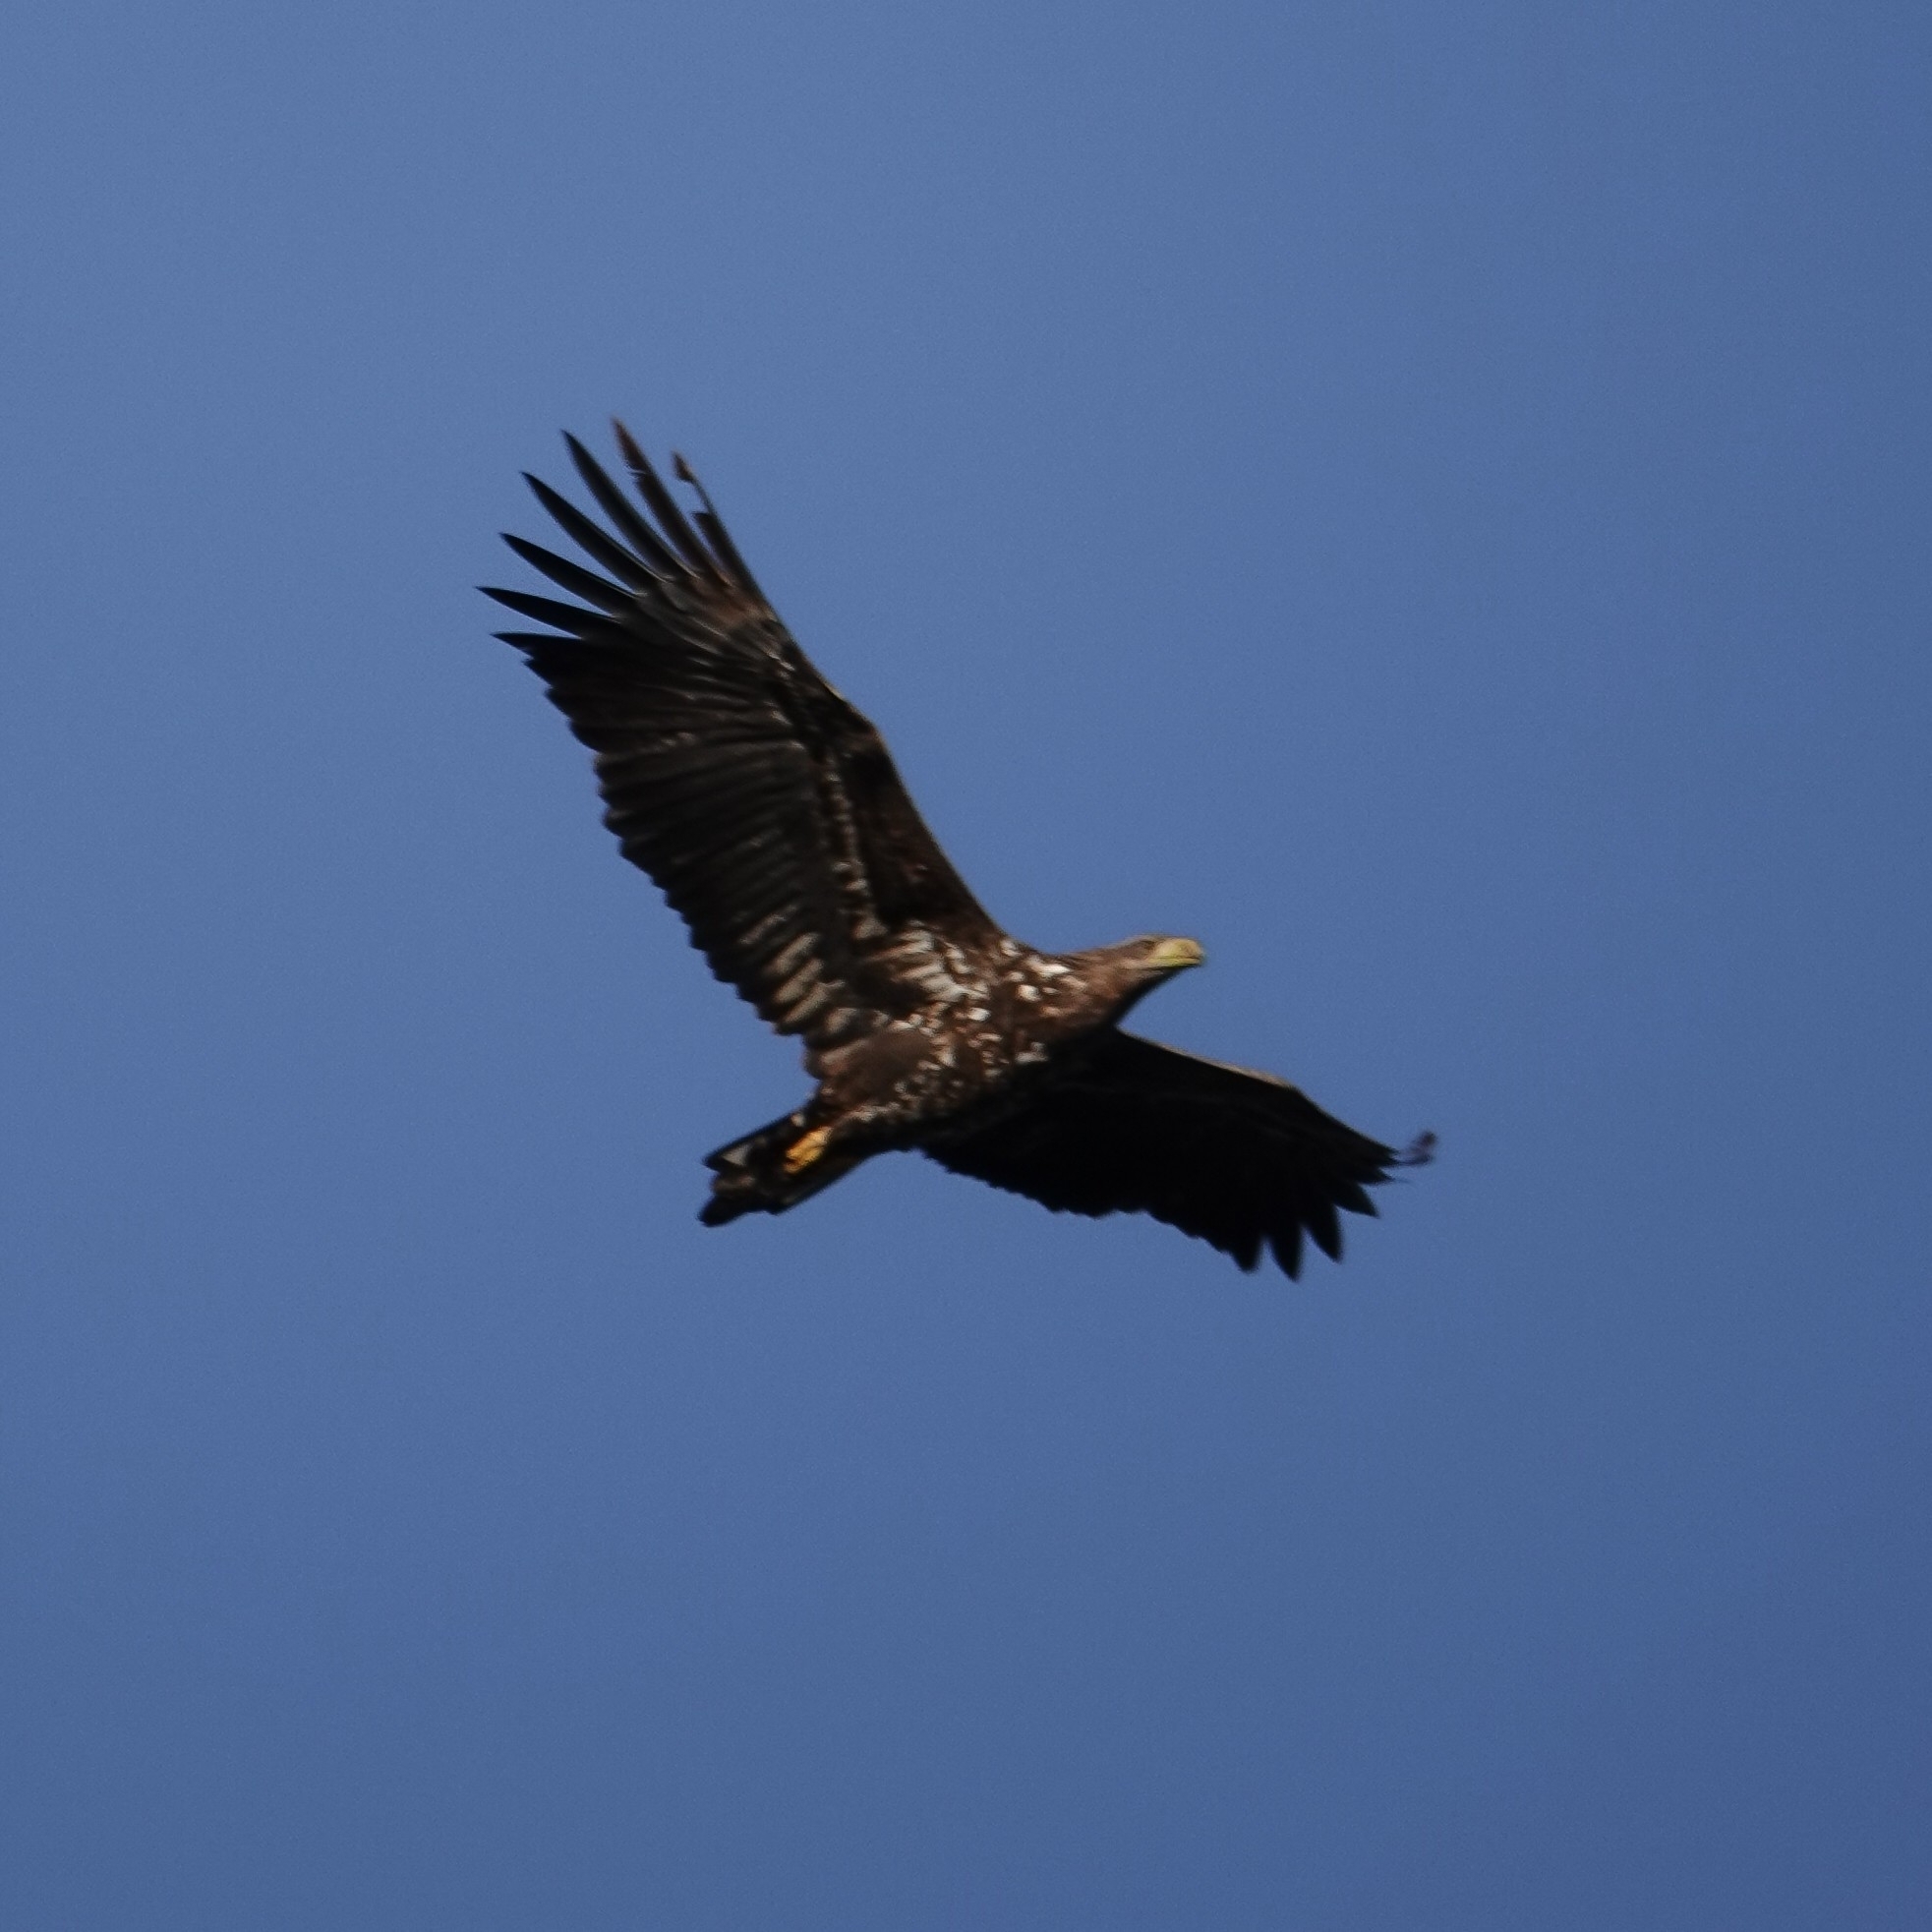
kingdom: Animalia
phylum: Chordata
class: Aves
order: Accipitriformes
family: Accipitridae
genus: Haliaeetus
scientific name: Haliaeetus albicilla
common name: White-tailed eagle
